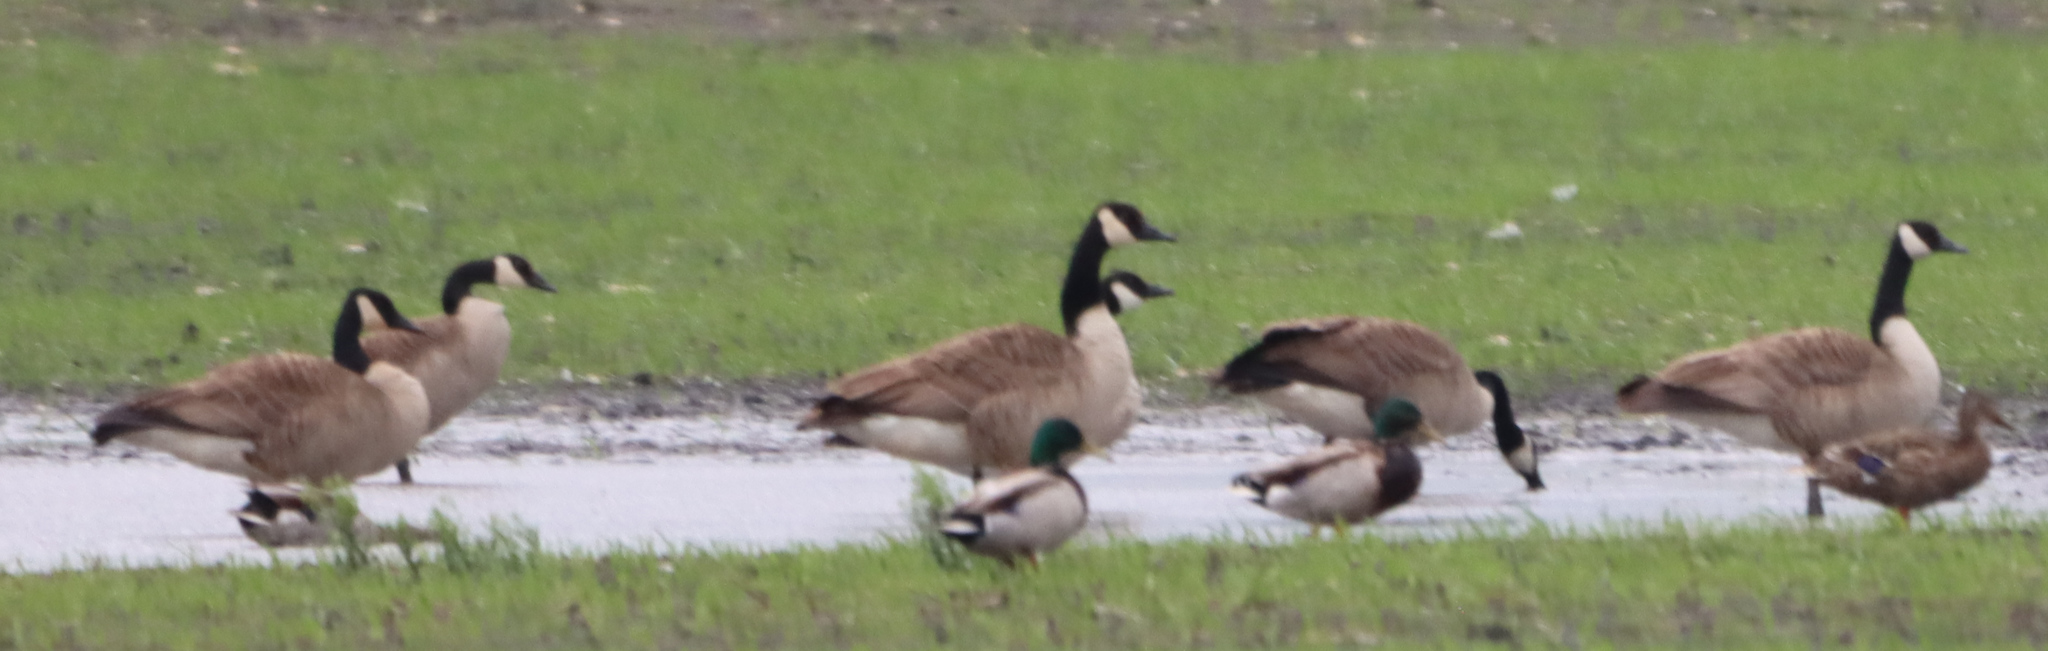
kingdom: Animalia
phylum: Chordata
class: Aves
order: Anseriformes
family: Anatidae
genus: Branta
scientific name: Branta canadensis
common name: Canada goose
